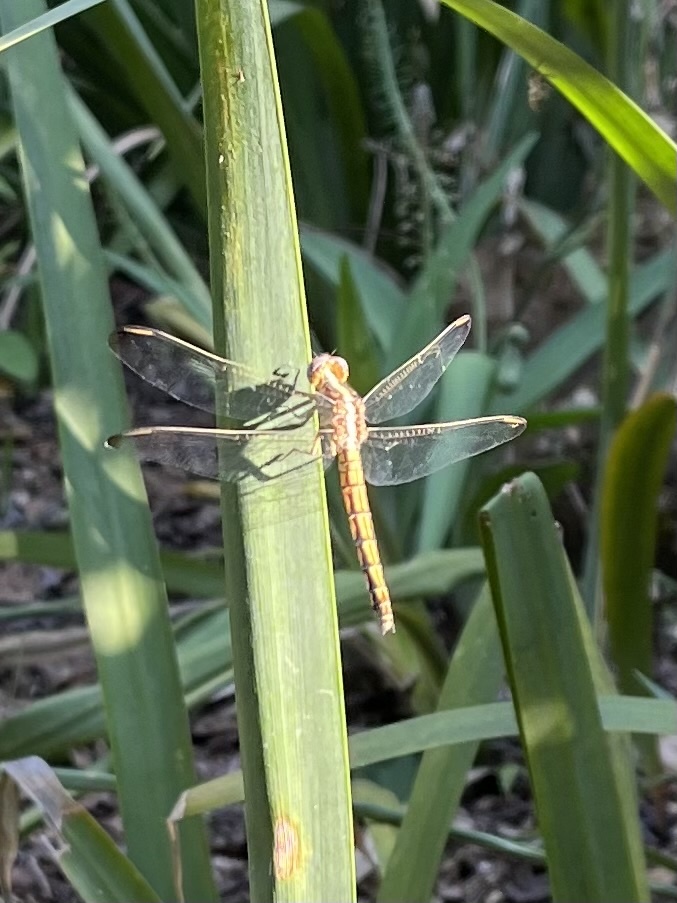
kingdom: Animalia
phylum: Arthropoda
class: Insecta
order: Odonata
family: Libellulidae
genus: Nesciothemis
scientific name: Nesciothemis farinosa
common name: Eastern blacktail
